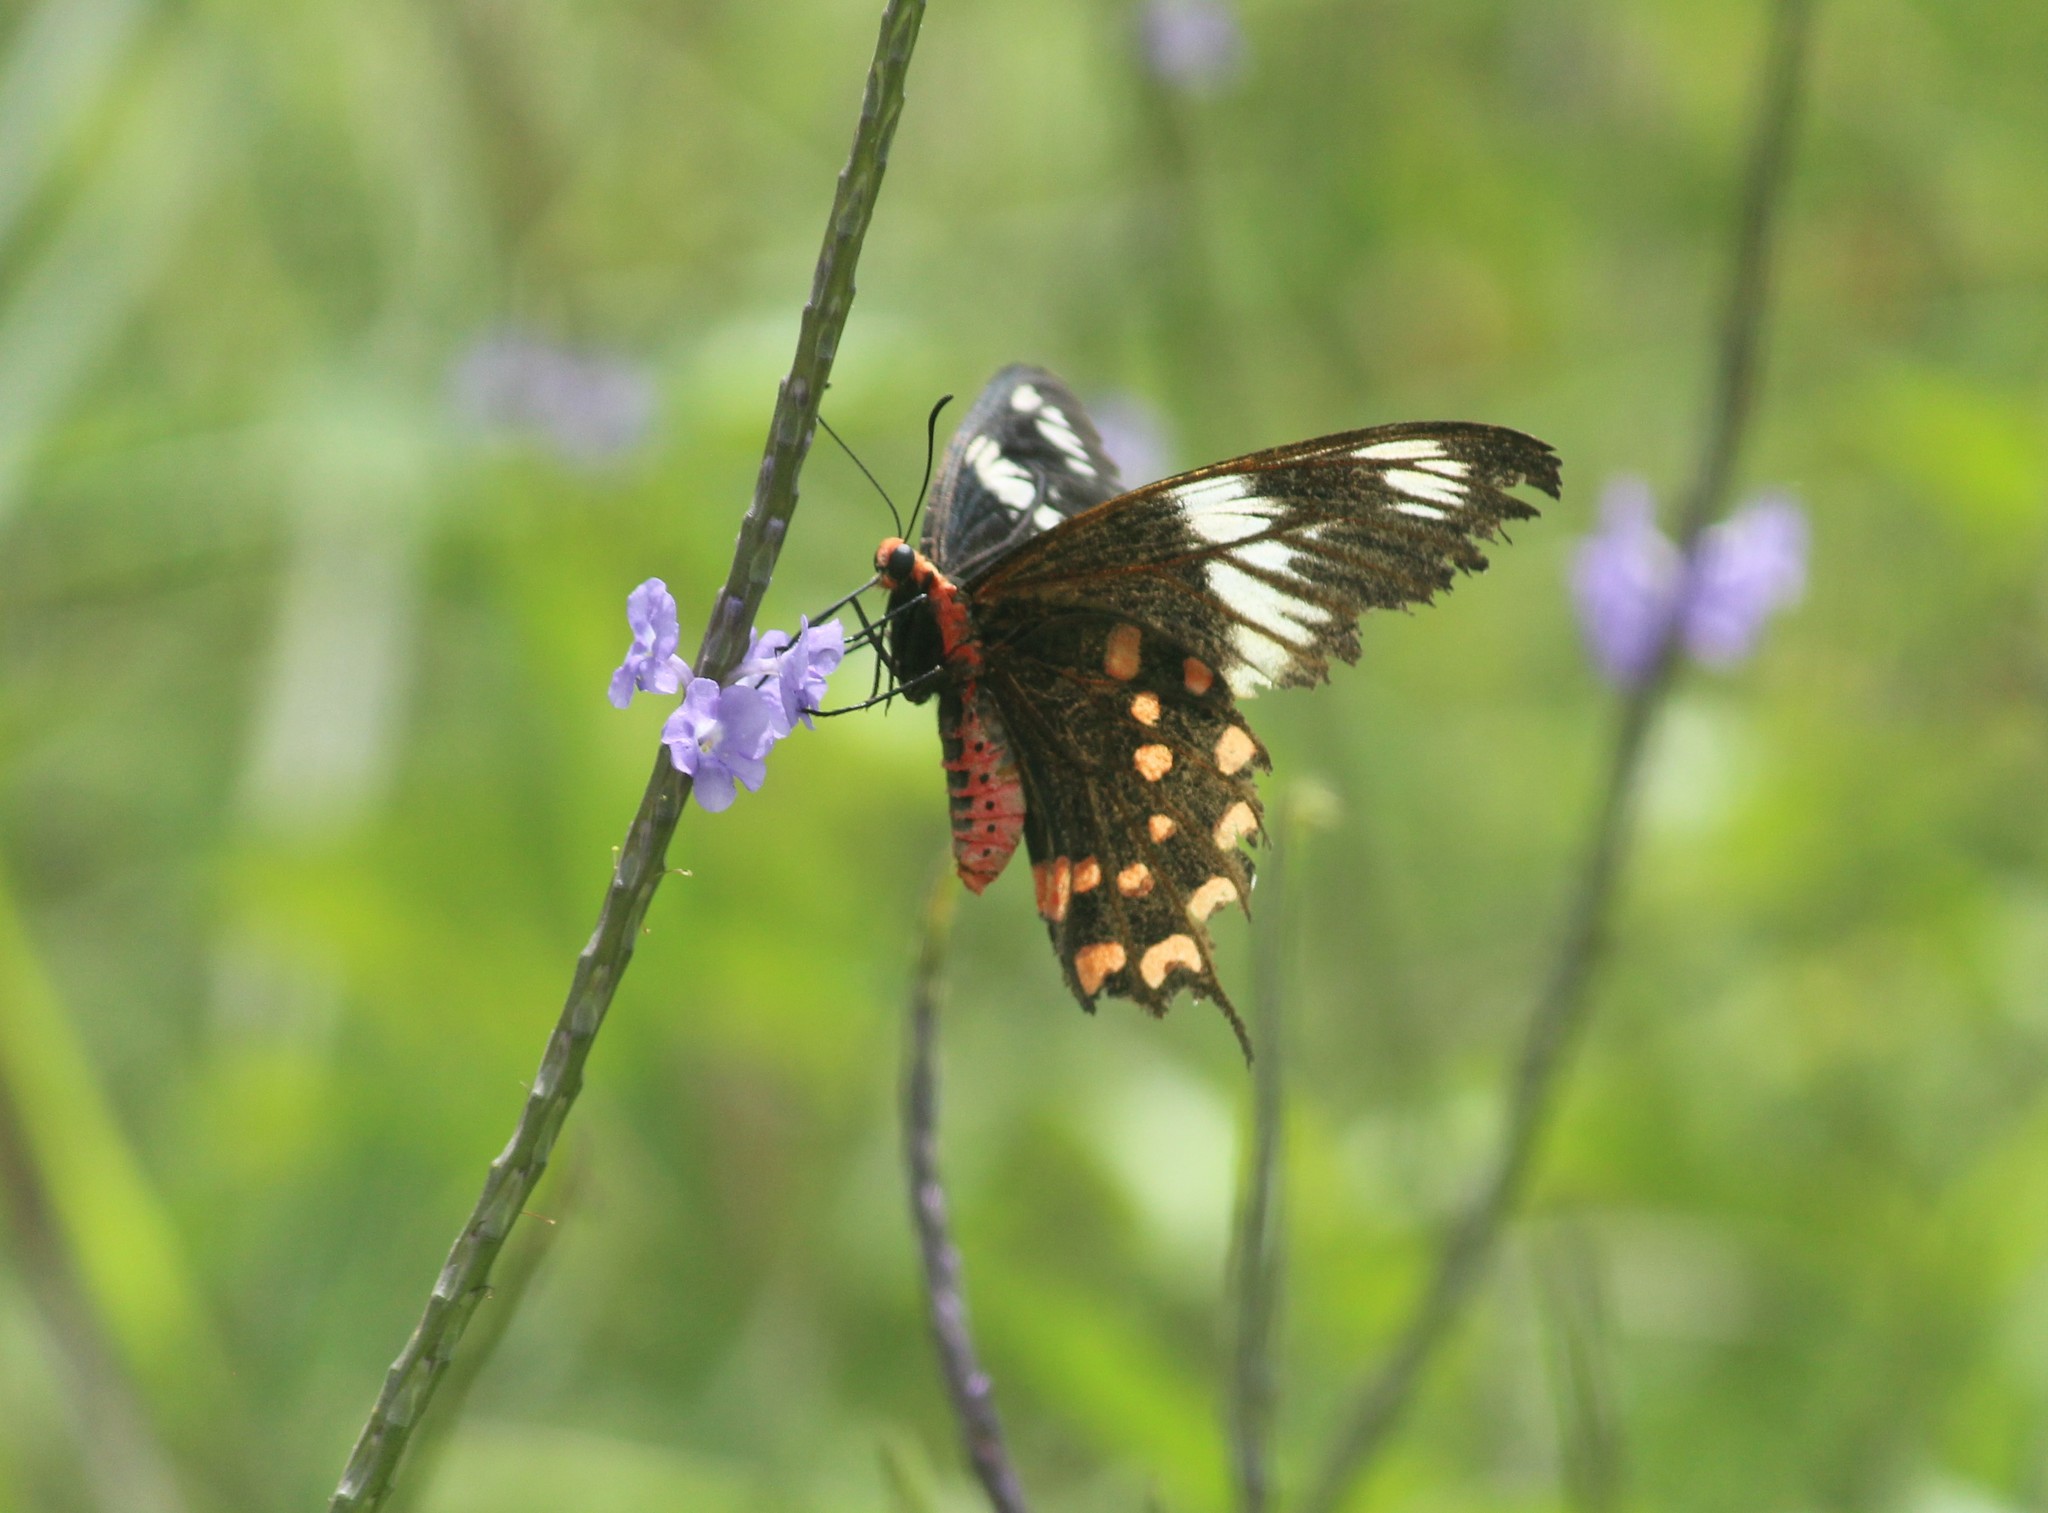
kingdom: Animalia
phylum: Arthropoda
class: Insecta
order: Lepidoptera
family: Papilionidae
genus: Pachliopta
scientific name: Pachliopta hector
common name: Crimson rose
